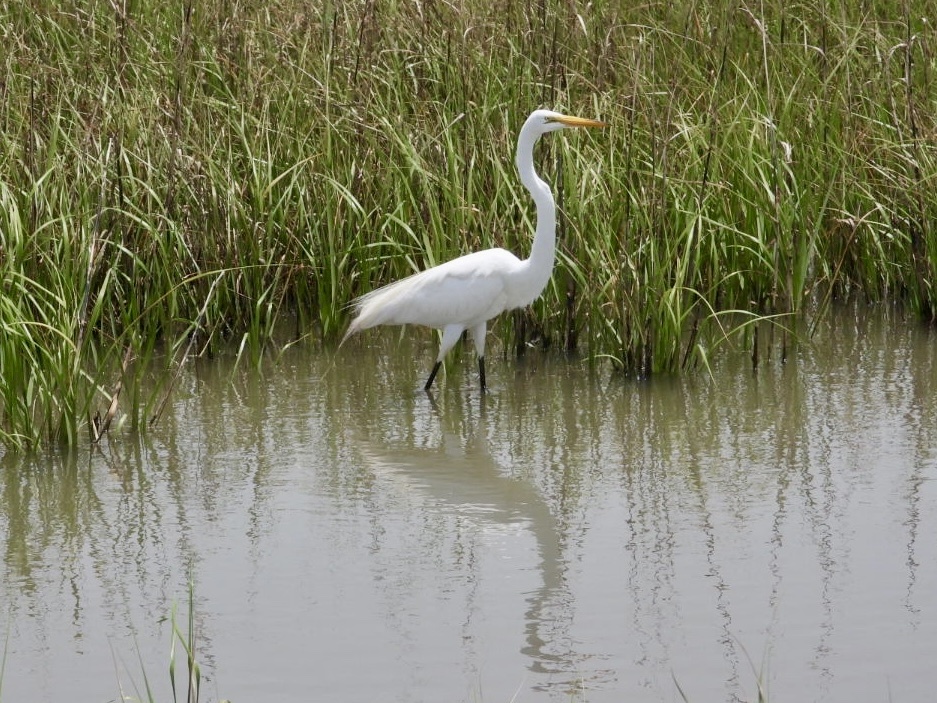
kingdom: Animalia
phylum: Chordata
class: Aves
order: Pelecaniformes
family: Ardeidae
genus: Ardea
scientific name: Ardea alba
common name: Great egret
